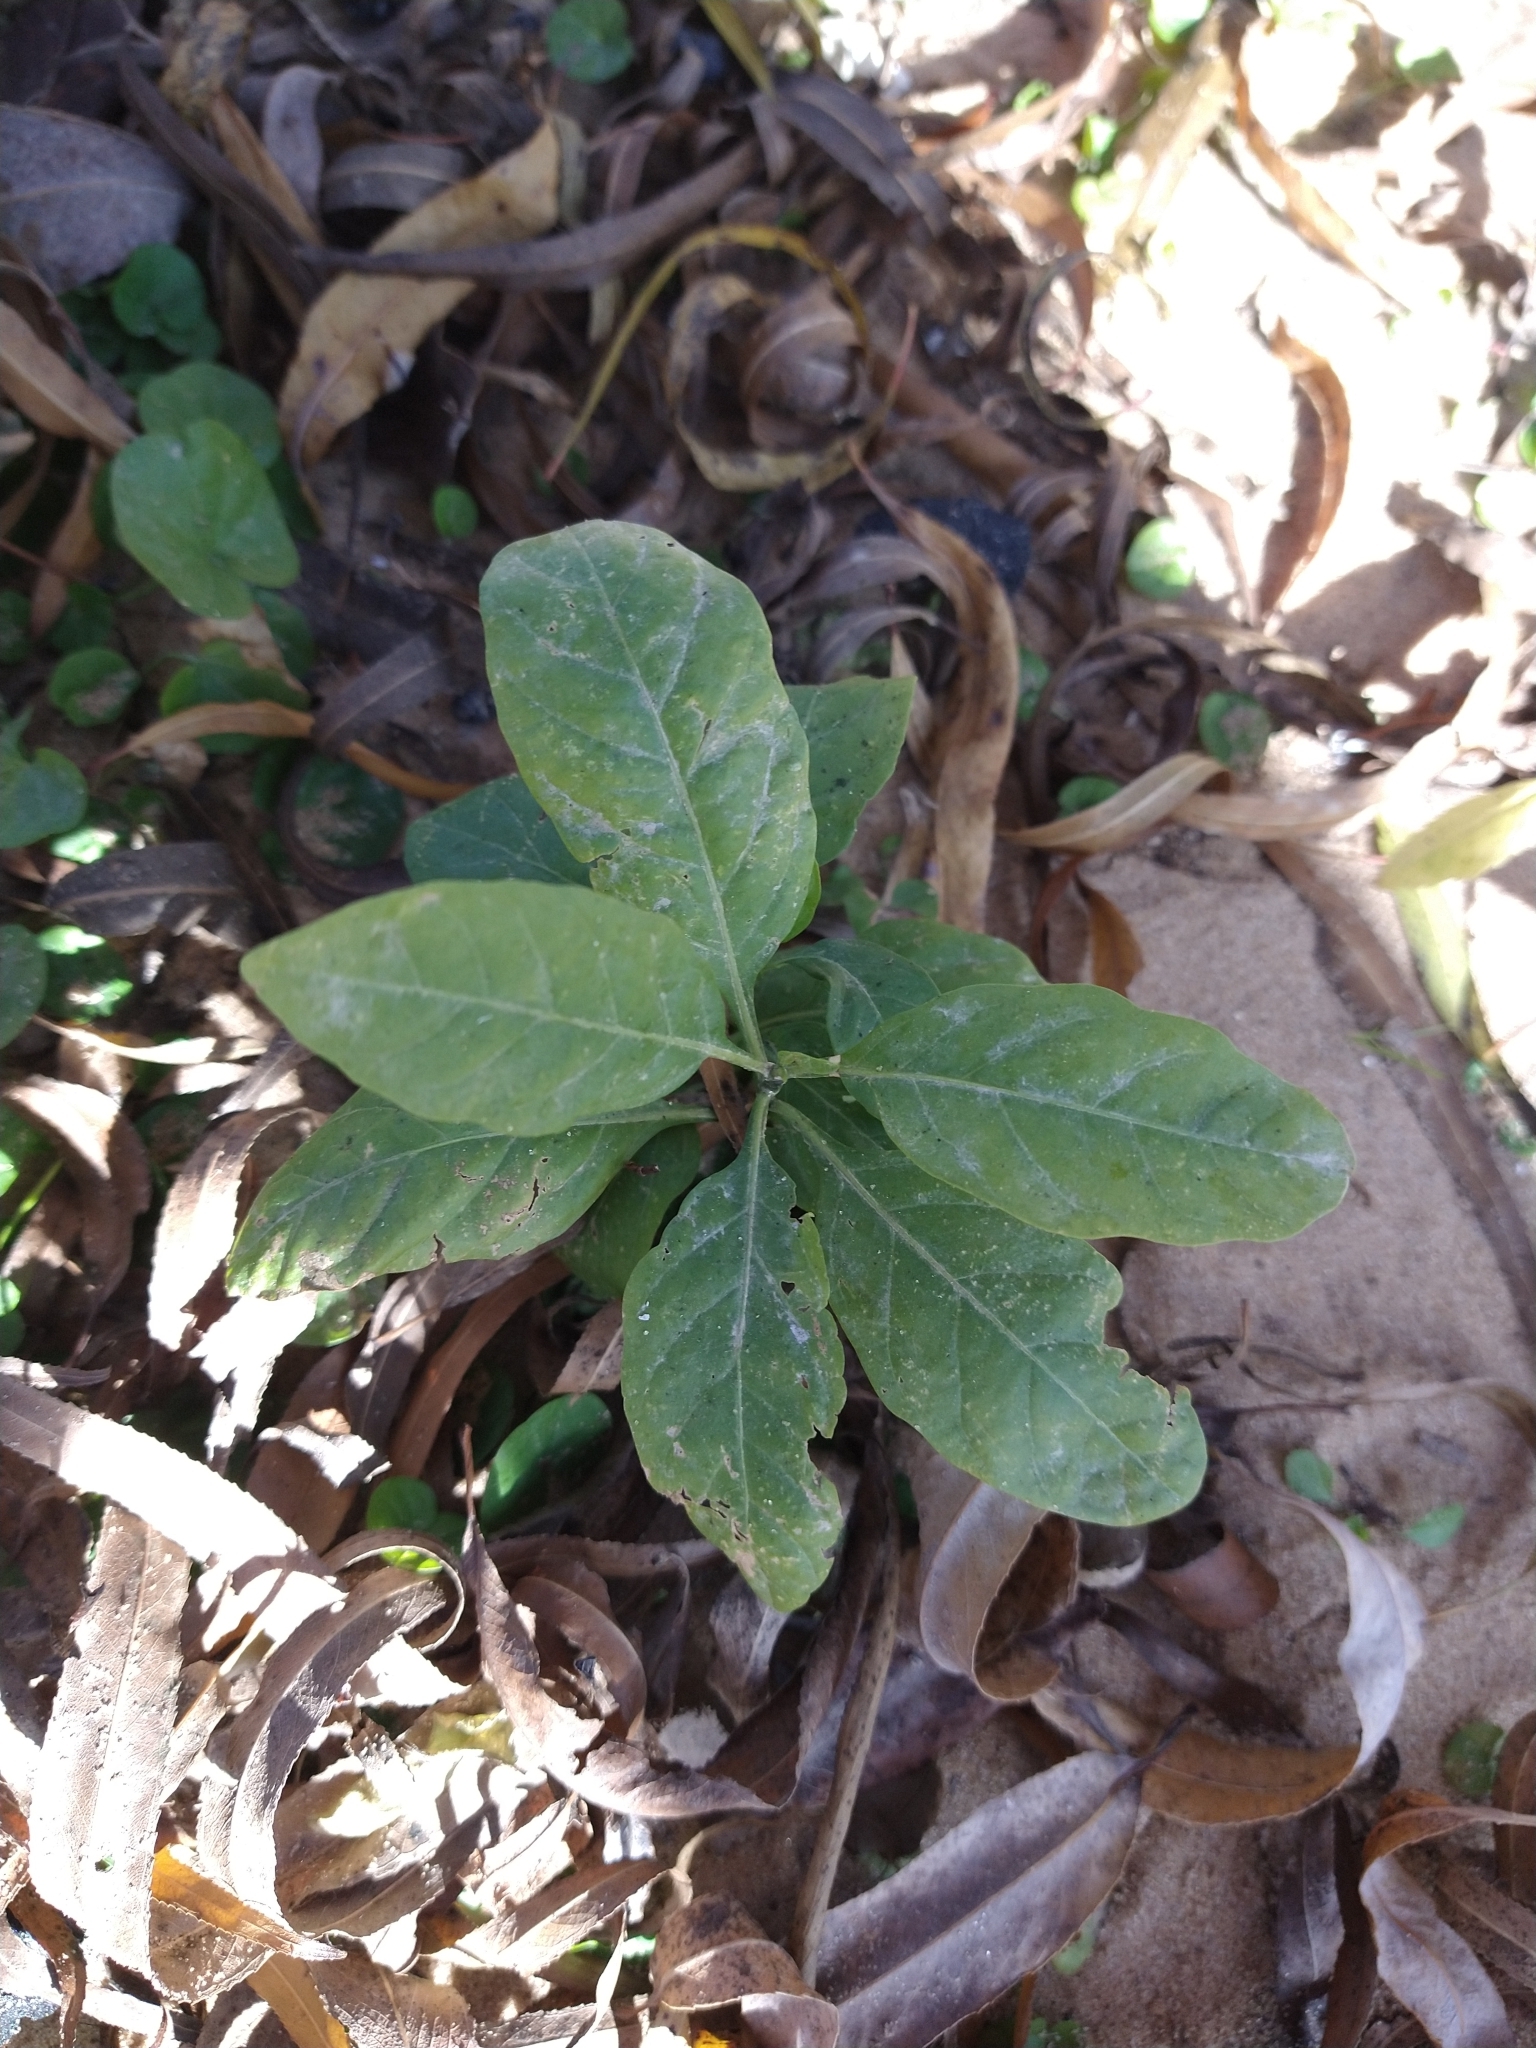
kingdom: Plantae
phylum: Tracheophyta
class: Magnoliopsida
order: Solanales
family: Solanaceae
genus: Nicotiana
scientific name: Nicotiana glauca
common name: Tree tobacco
